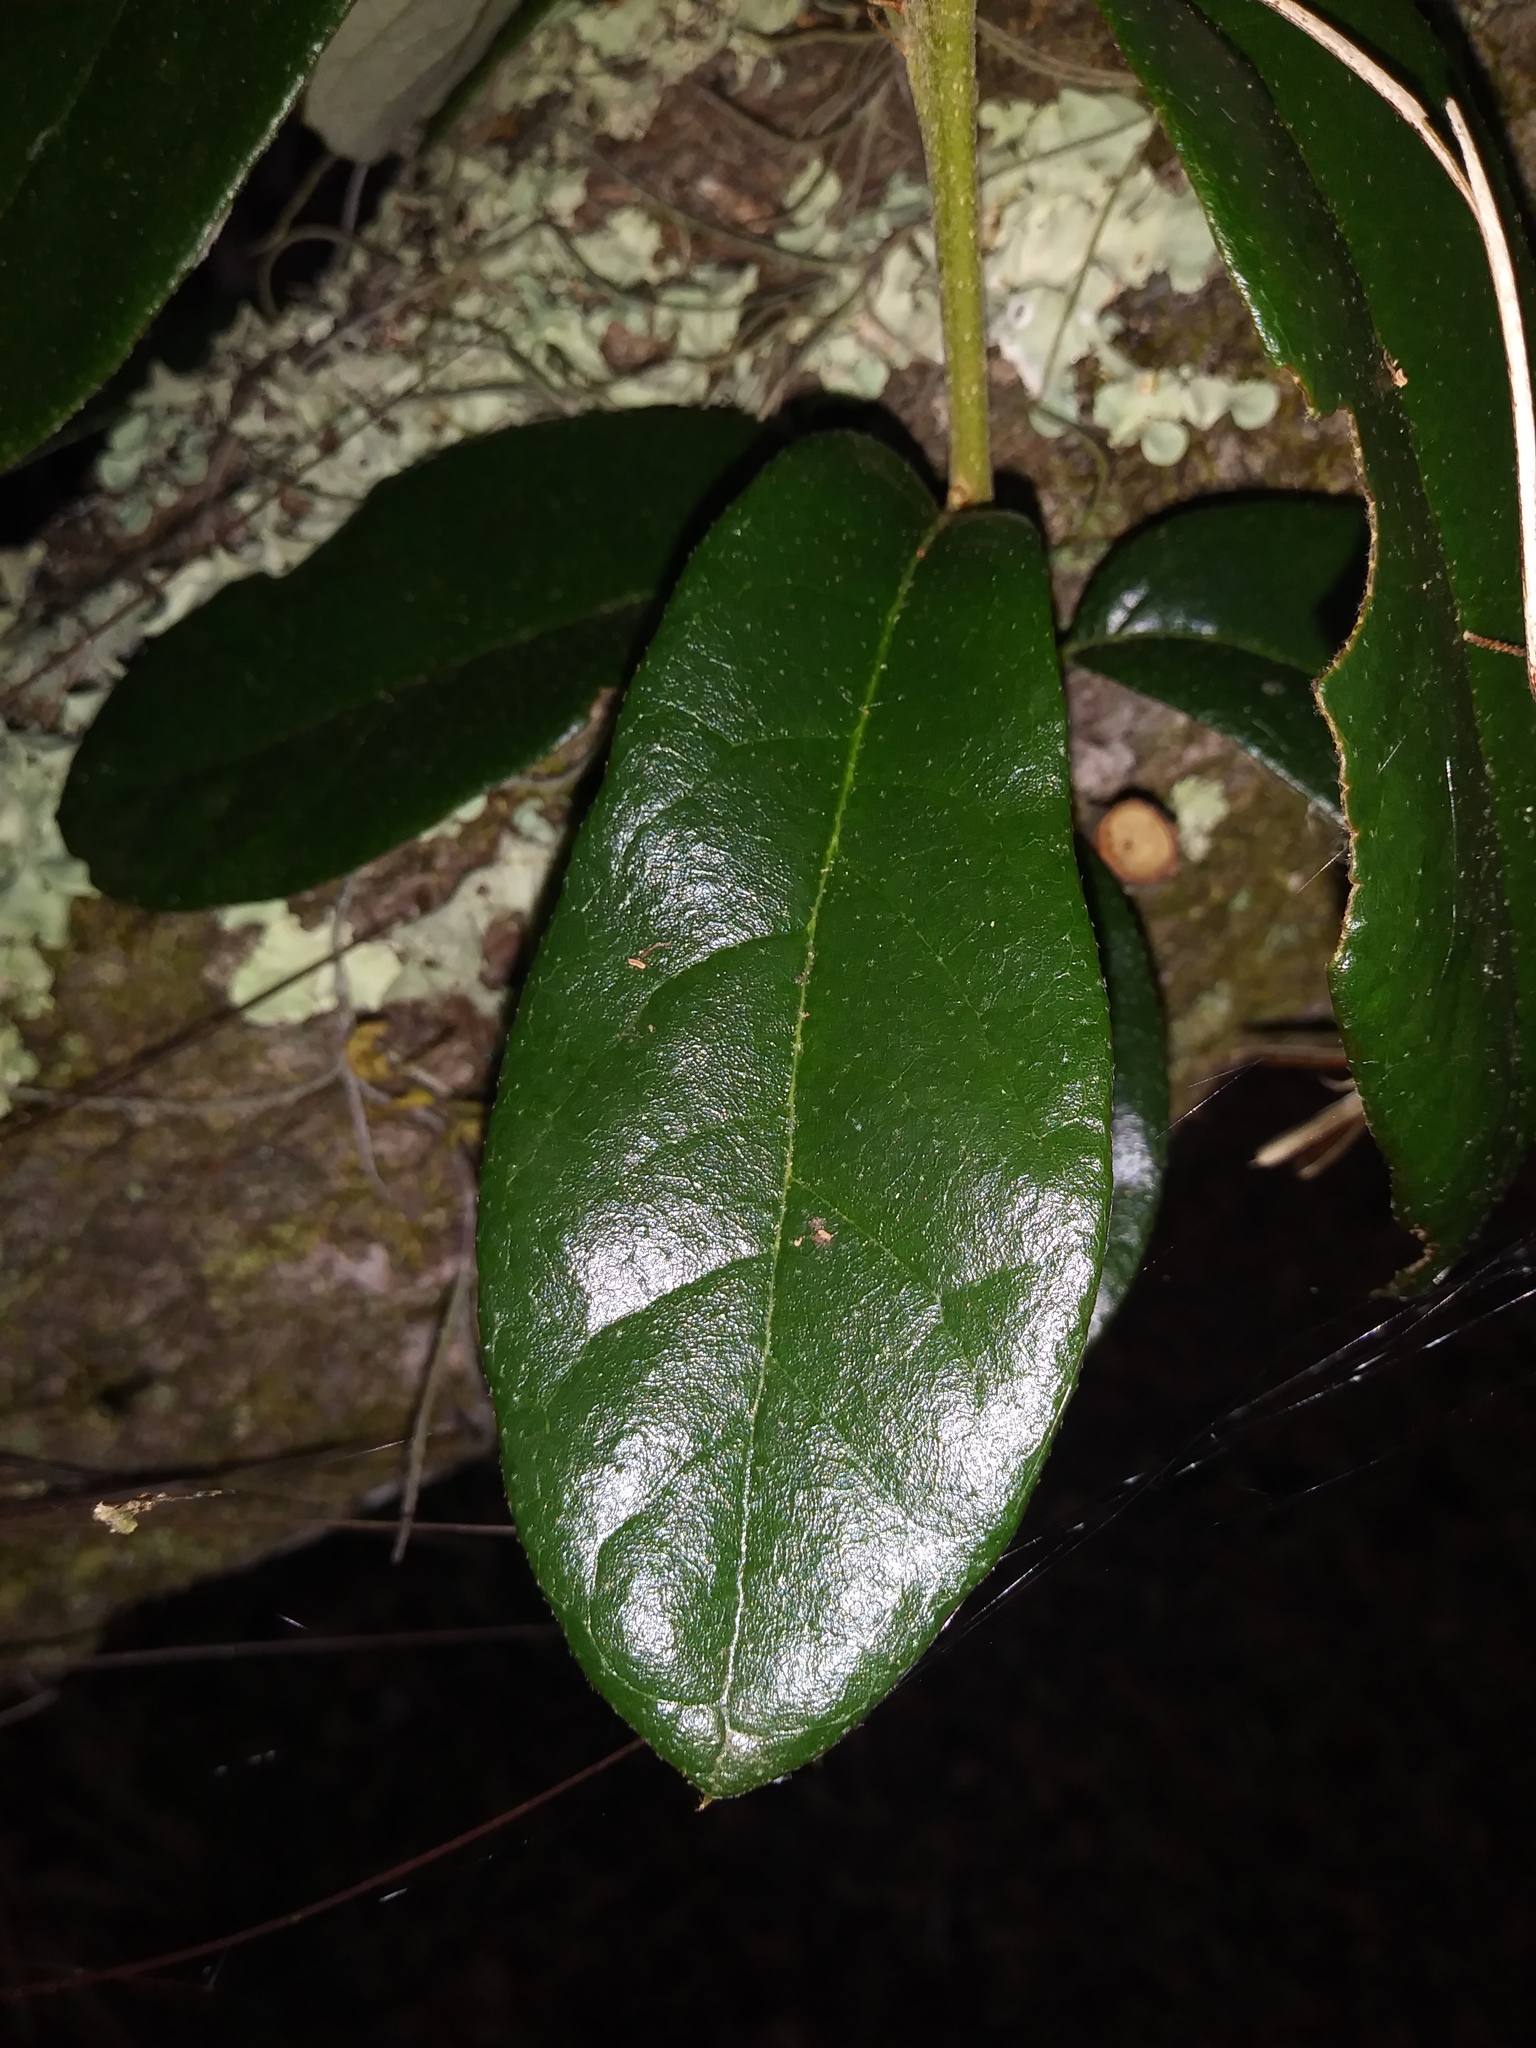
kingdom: Plantae
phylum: Tracheophyta
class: Magnoliopsida
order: Fagales
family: Fagaceae
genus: Quercus
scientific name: Quercus virginiana
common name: Southern live oak
